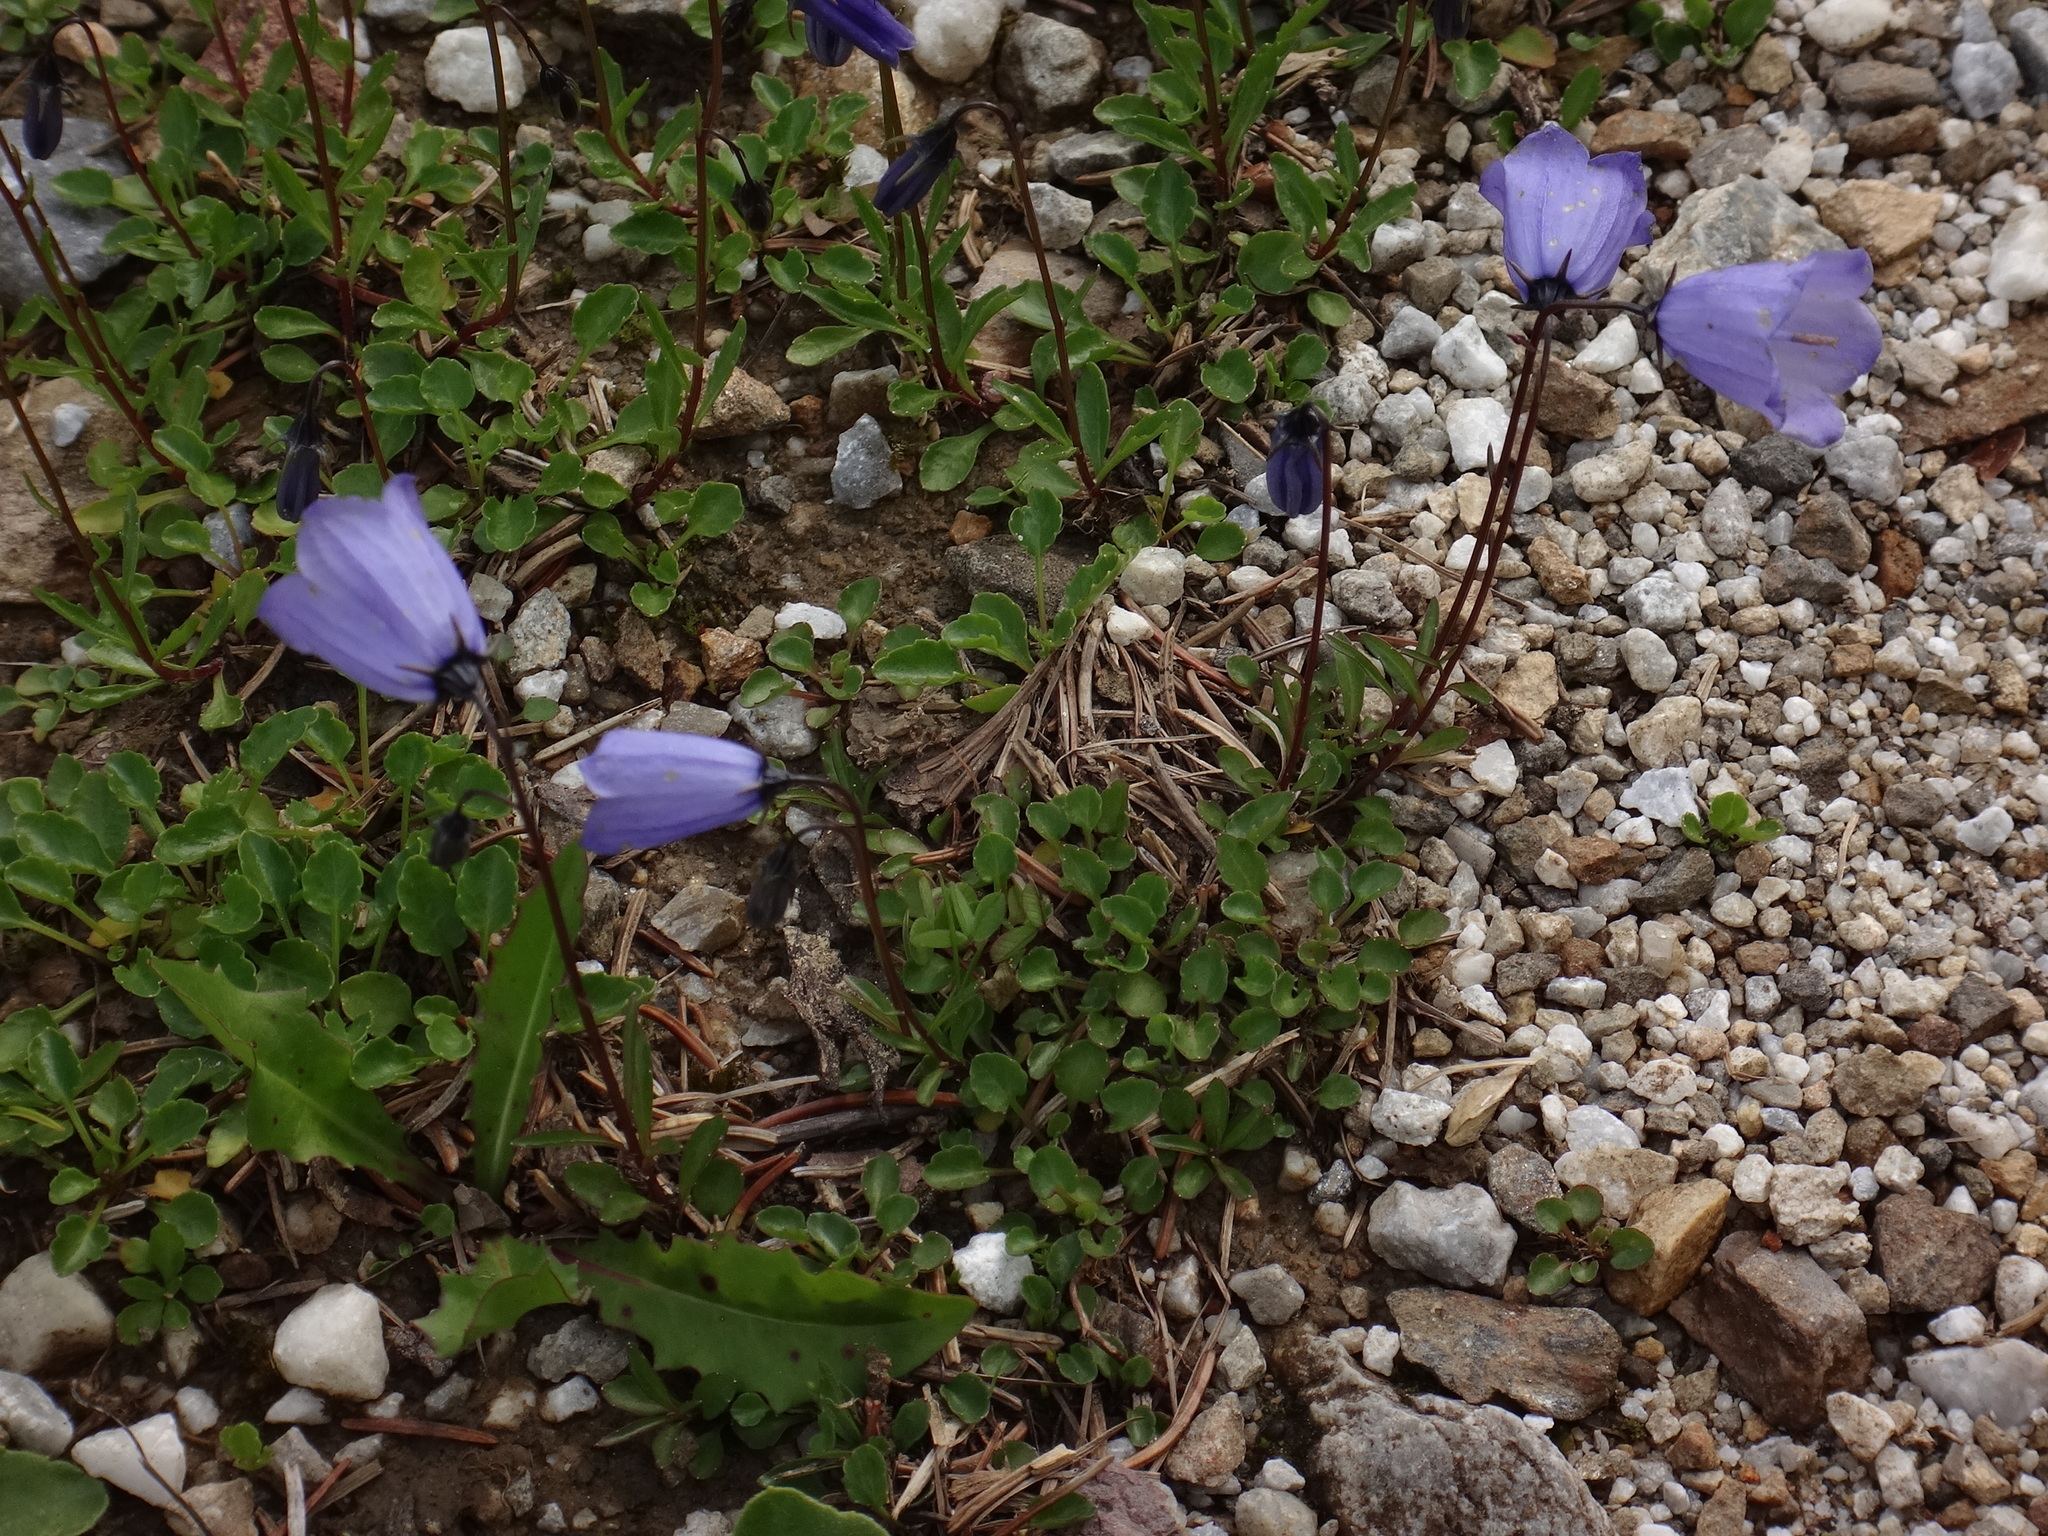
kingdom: Plantae
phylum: Tracheophyta
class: Magnoliopsida
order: Asterales
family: Campanulaceae
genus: Campanula
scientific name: Campanula cochleariifolia
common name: Fairies'-thimbles
